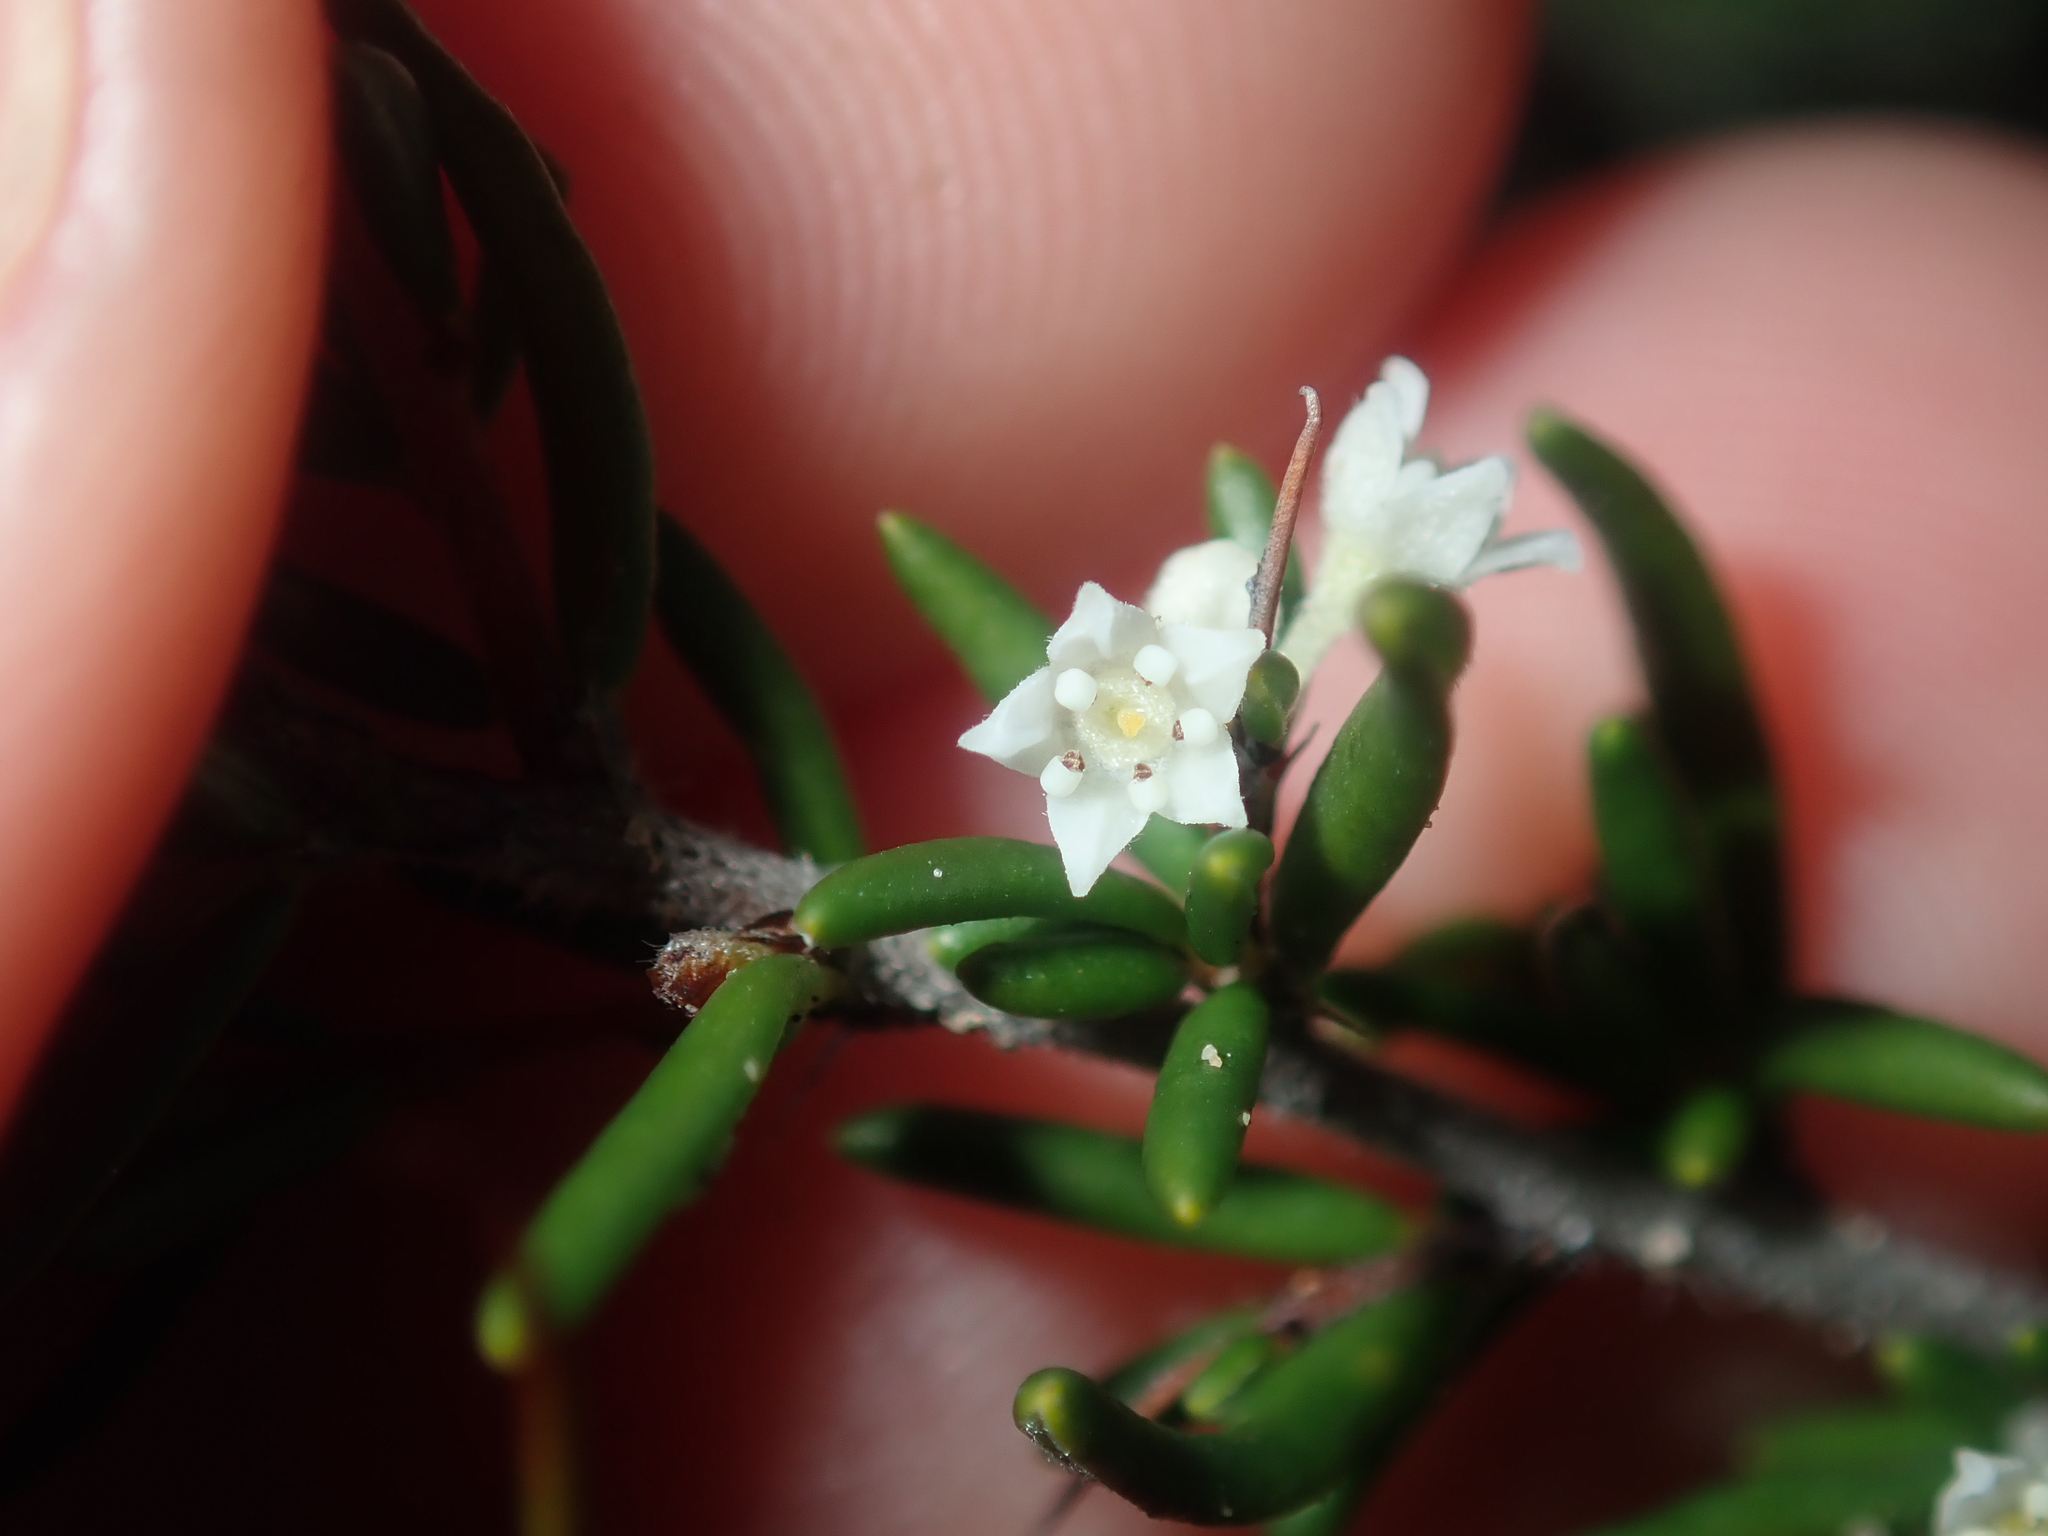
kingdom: Plantae
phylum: Tracheophyta
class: Magnoliopsida
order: Rosales
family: Rhamnaceae
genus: Cryptandra
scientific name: Cryptandra pungens
